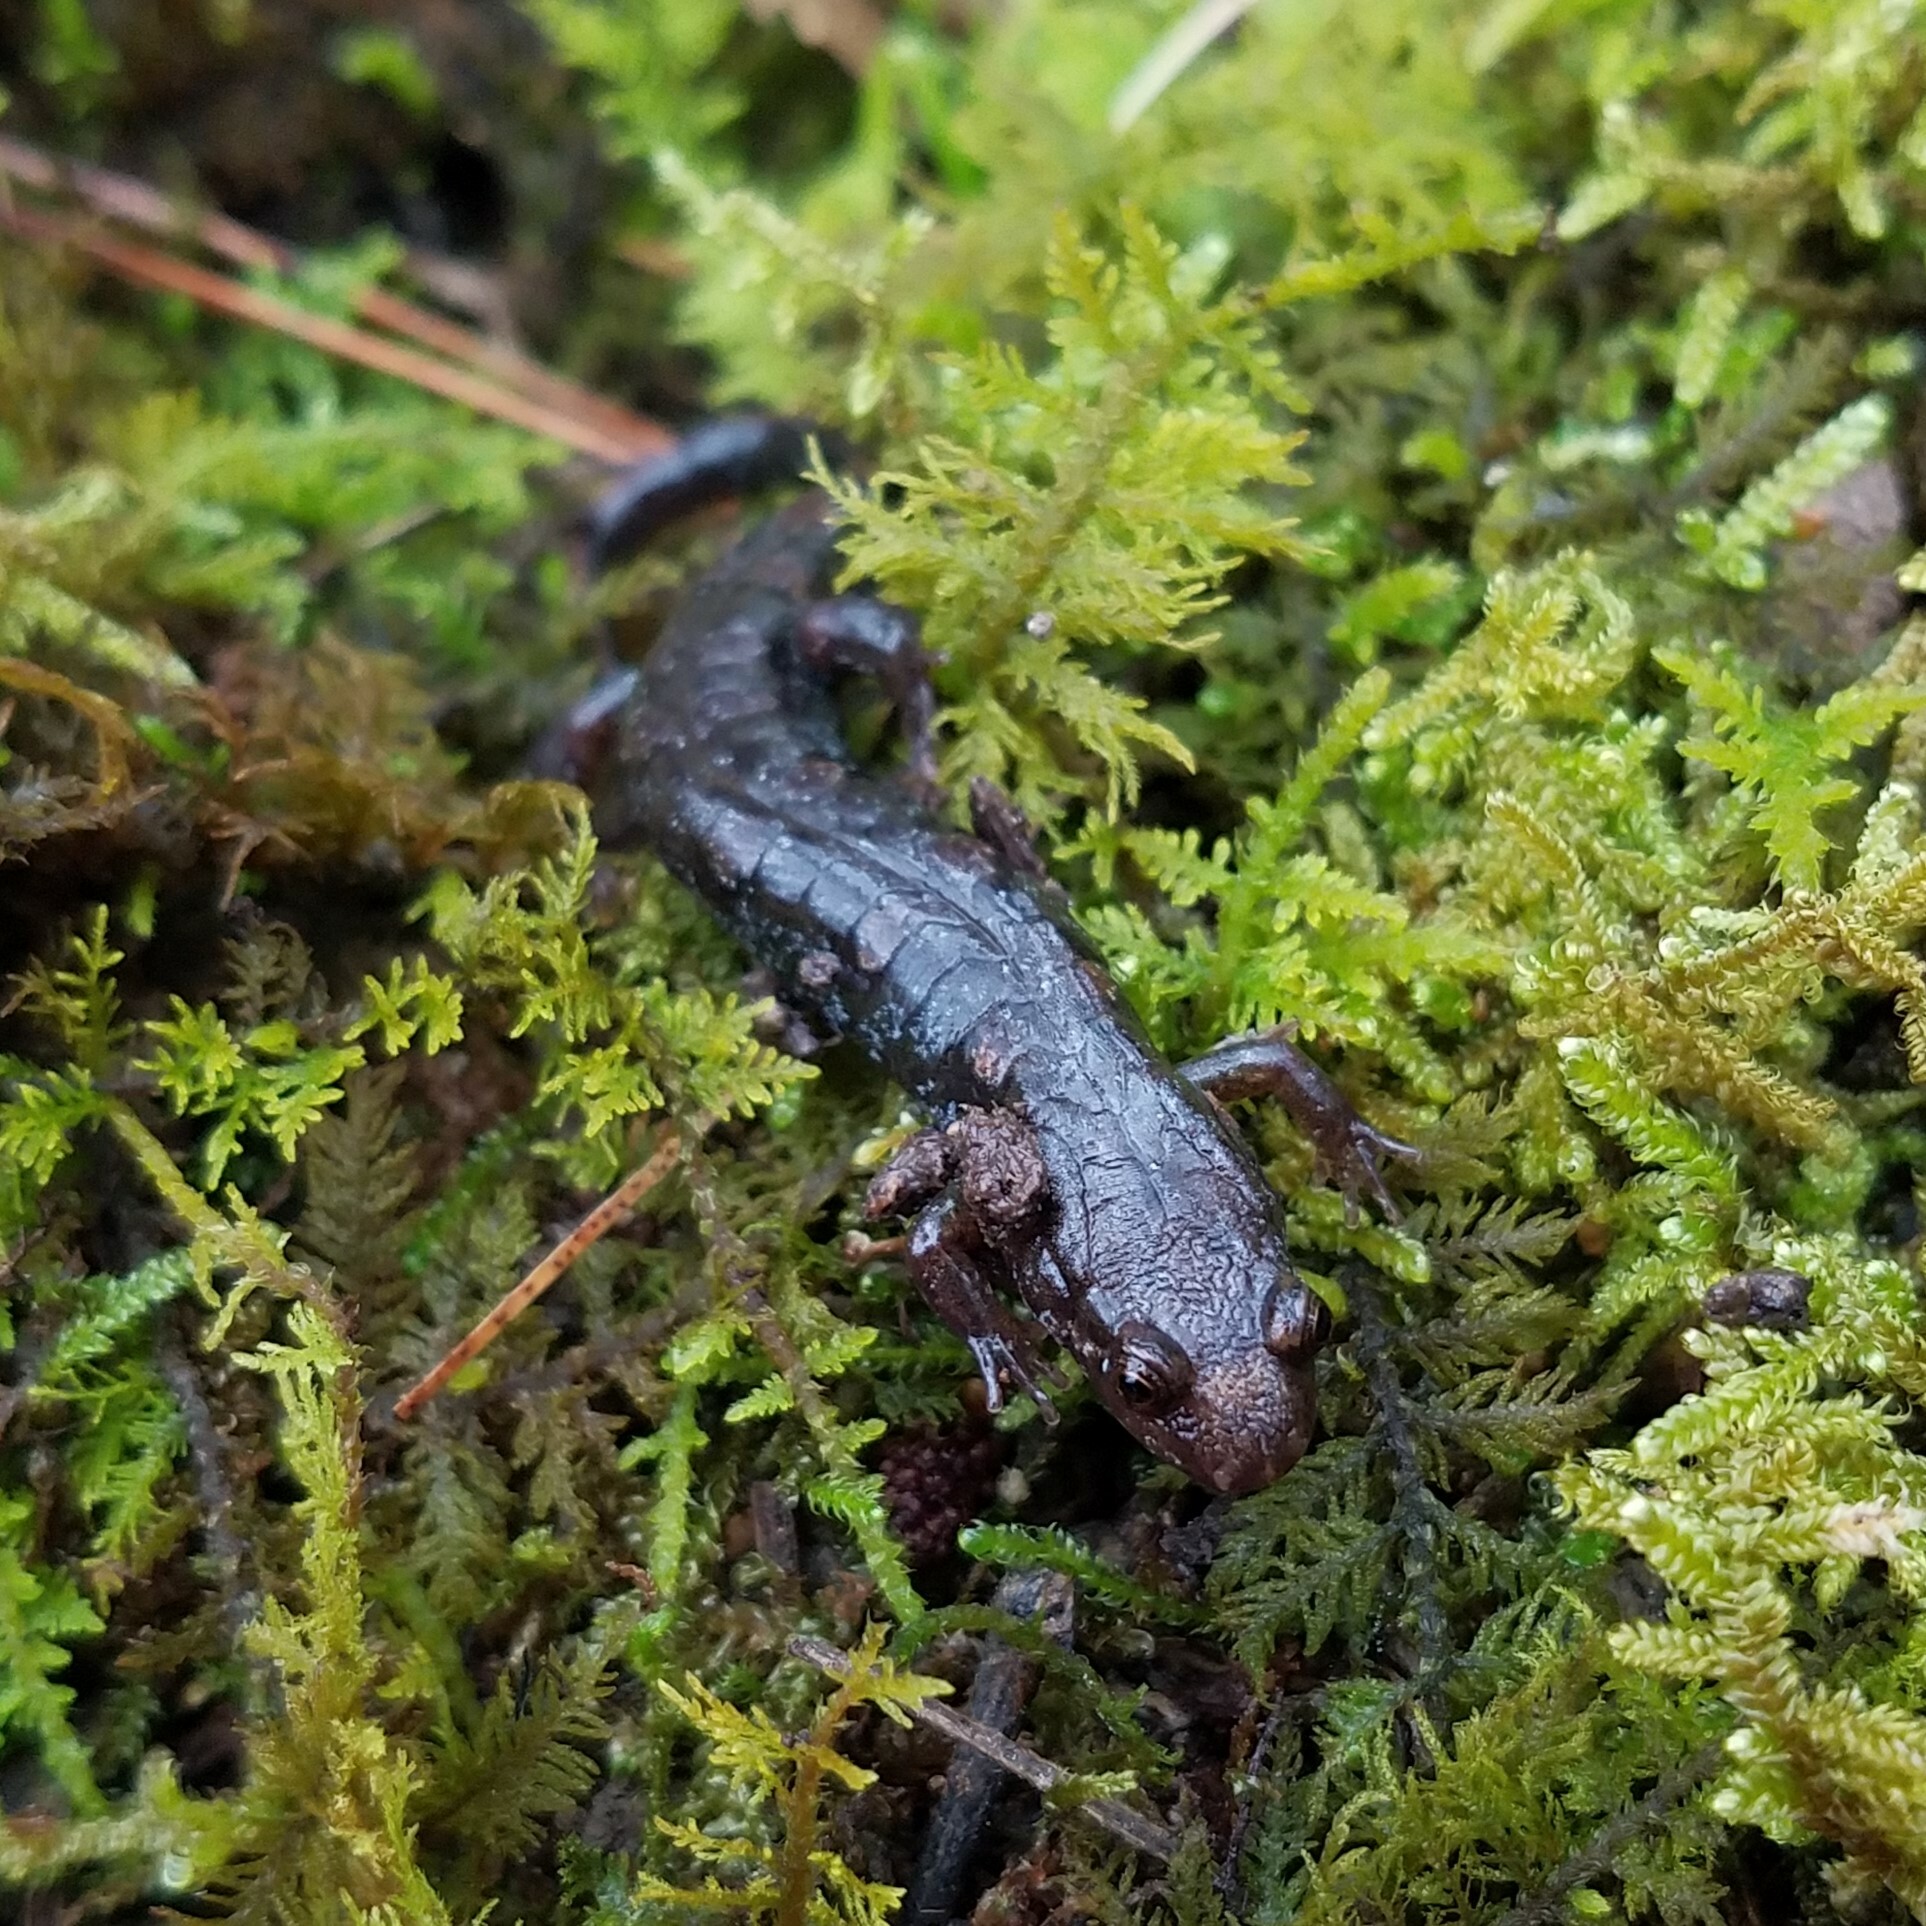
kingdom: Animalia
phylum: Chordata
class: Amphibia
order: Caudata
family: Plethodontidae
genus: Desmognathus
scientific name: Desmognathus ocoee
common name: Ocoee salamander
